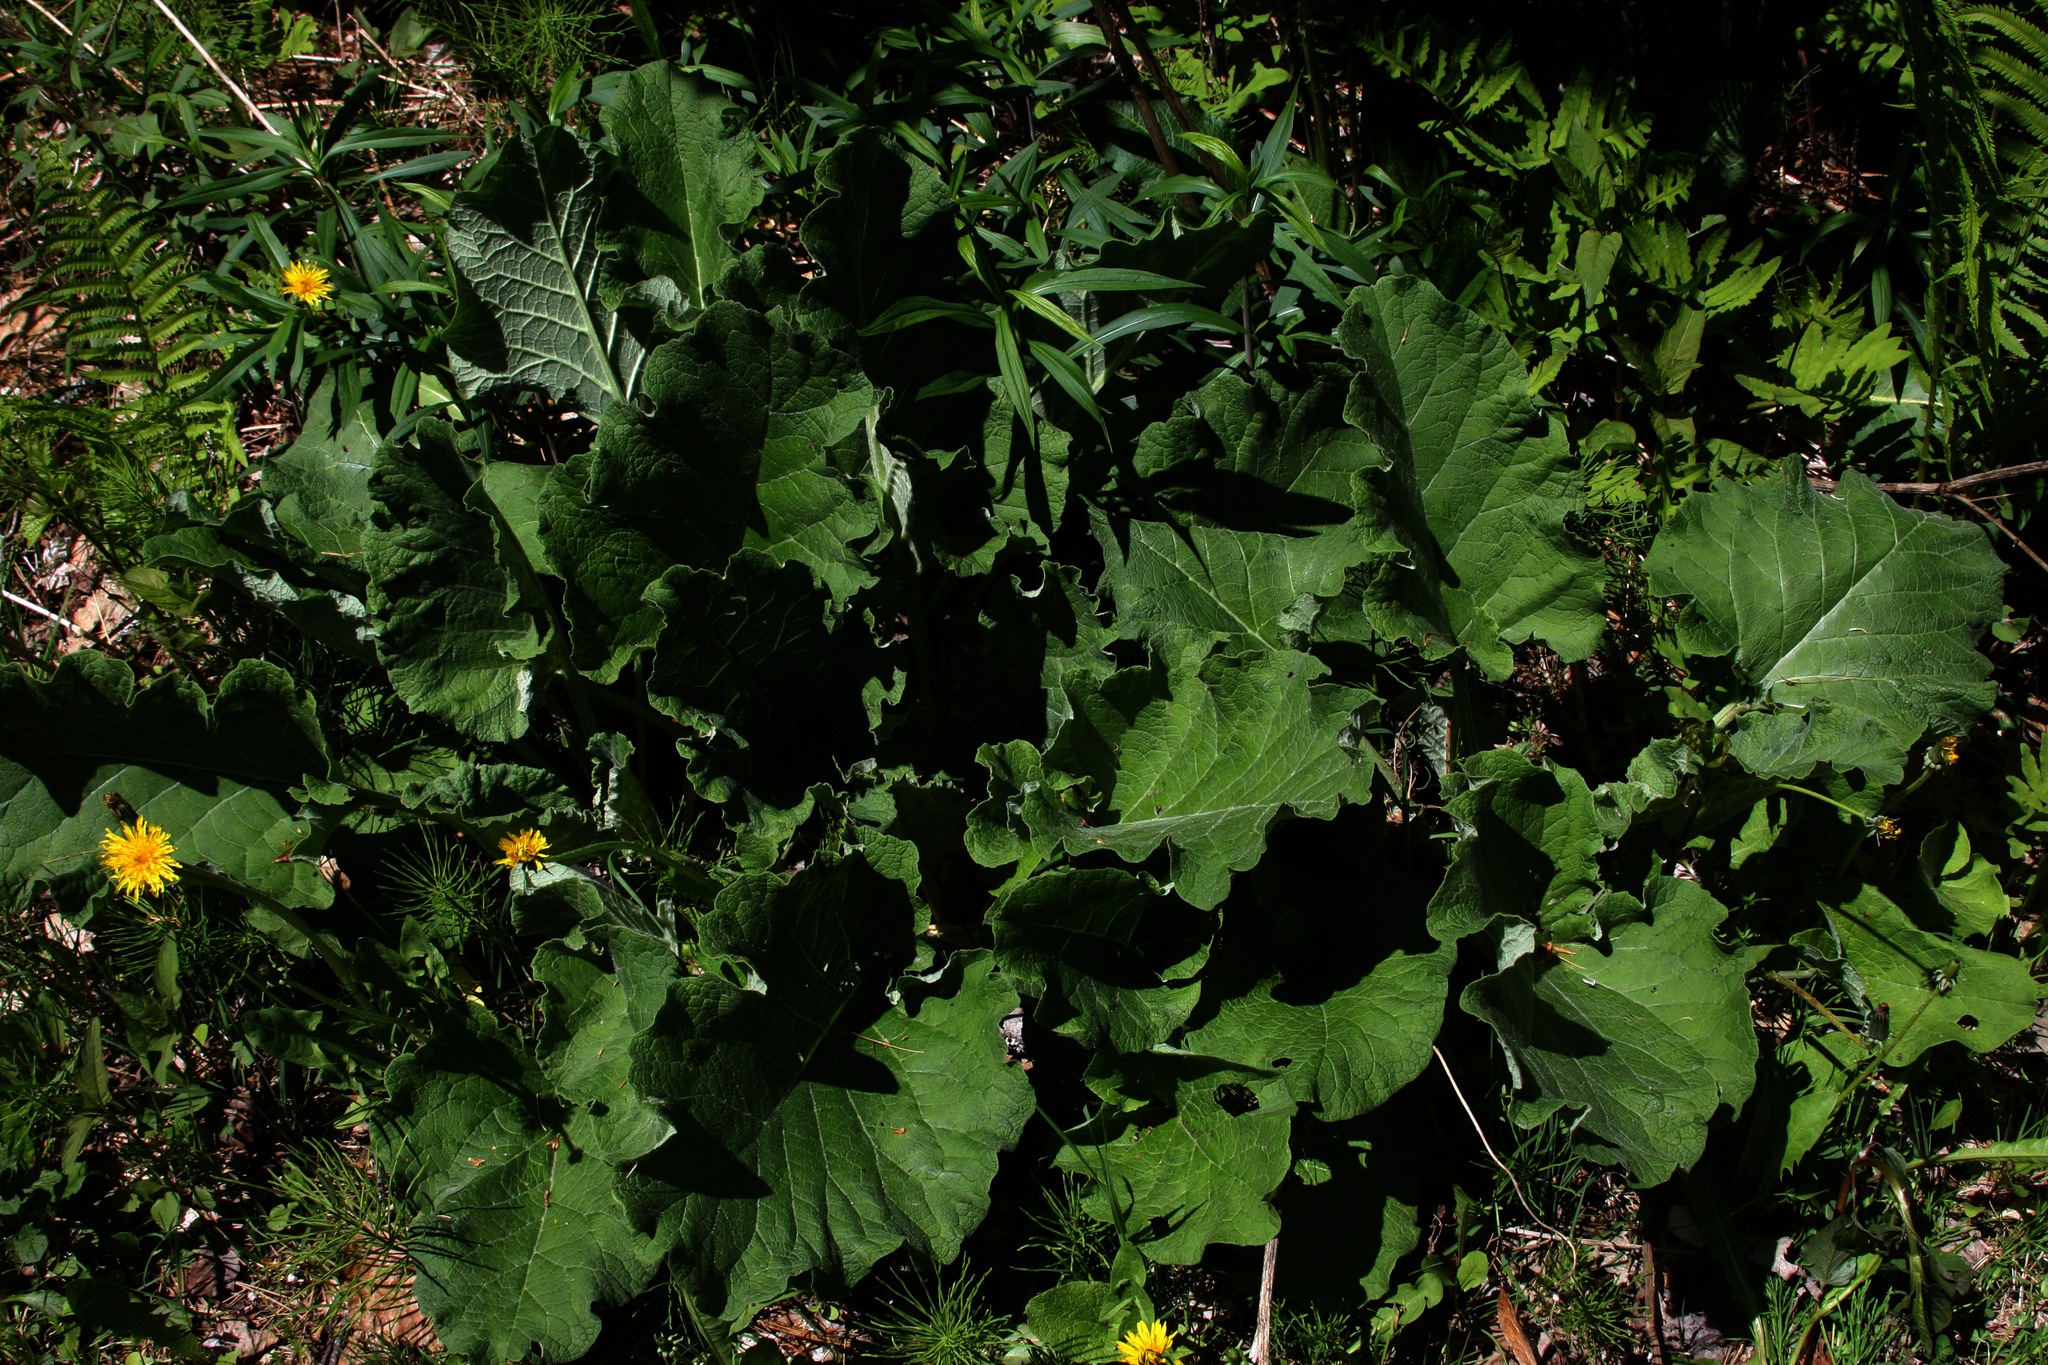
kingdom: Plantae
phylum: Tracheophyta
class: Polypodiopsida
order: Equisetales
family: Equisetaceae
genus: Equisetum
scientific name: Equisetum arvense
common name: Field horsetail
